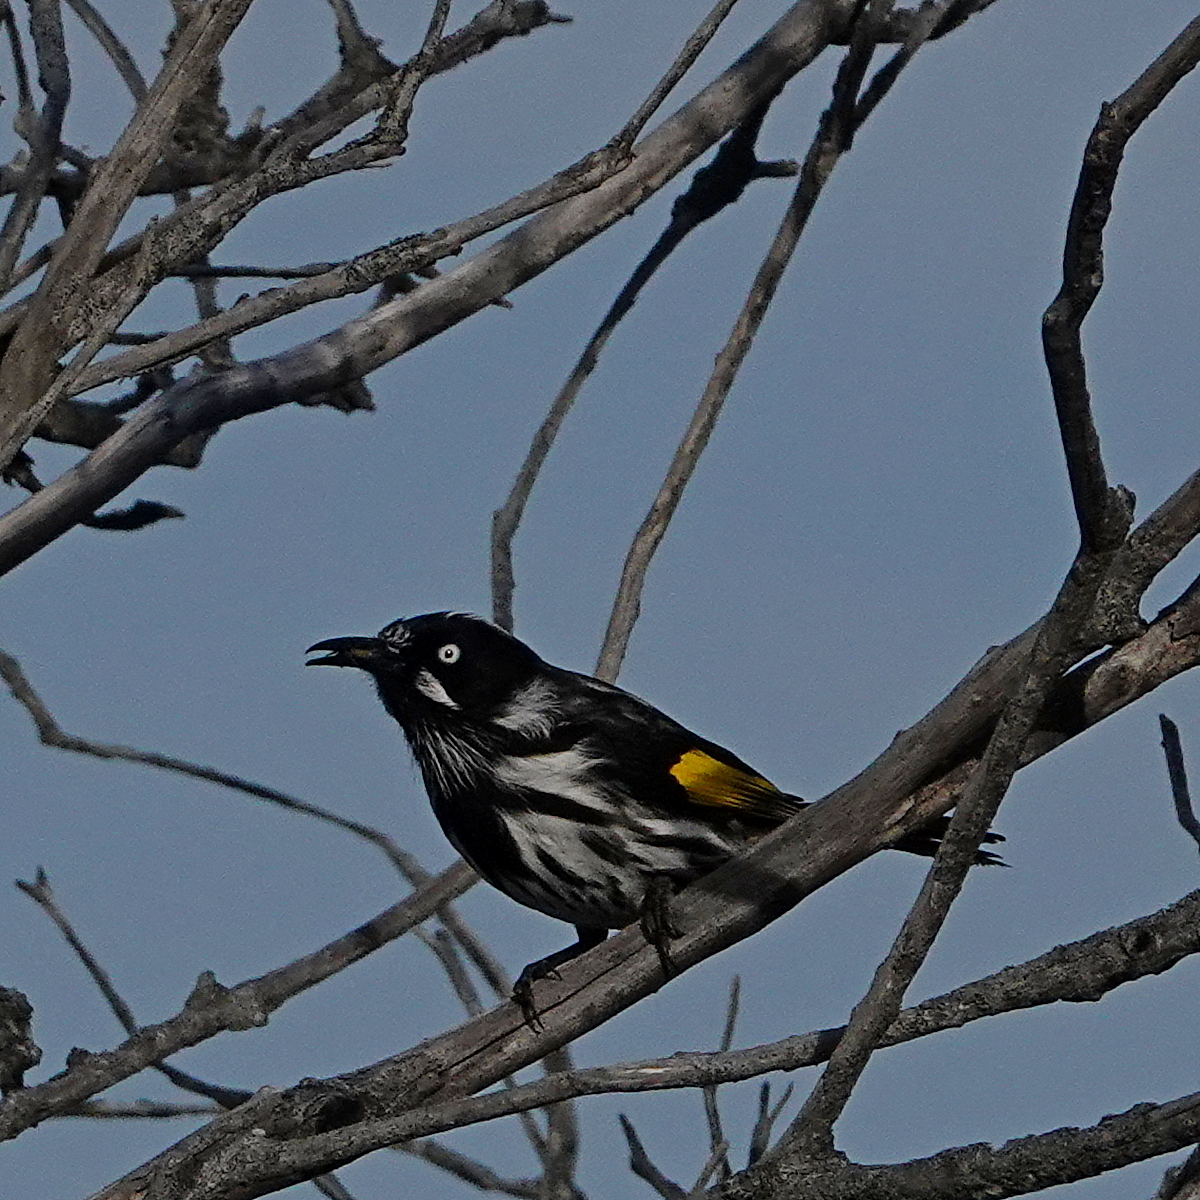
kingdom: Animalia
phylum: Chordata
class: Aves
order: Passeriformes
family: Meliphagidae
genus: Phylidonyris
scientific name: Phylidonyris novaehollandiae
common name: New holland honeyeater
